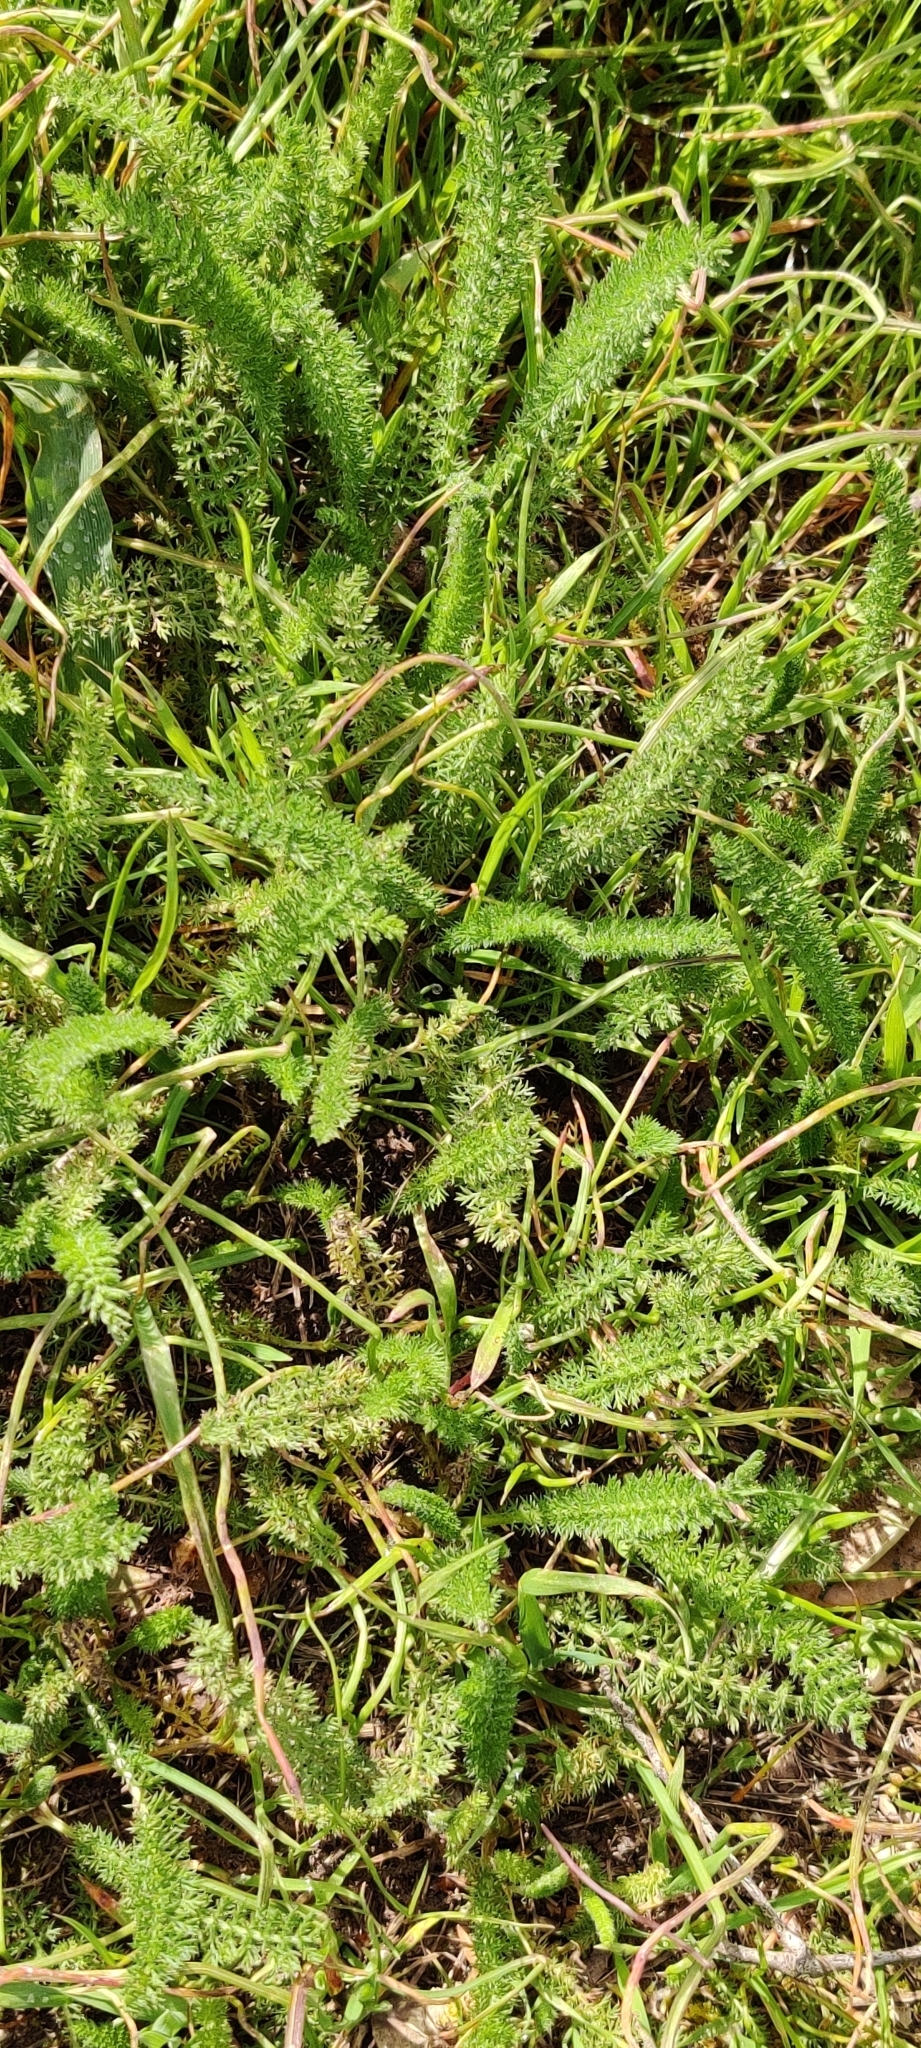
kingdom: Plantae
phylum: Tracheophyta
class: Magnoliopsida
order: Asterales
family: Asteraceae
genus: Achillea
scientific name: Achillea millefolium
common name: Yarrow
